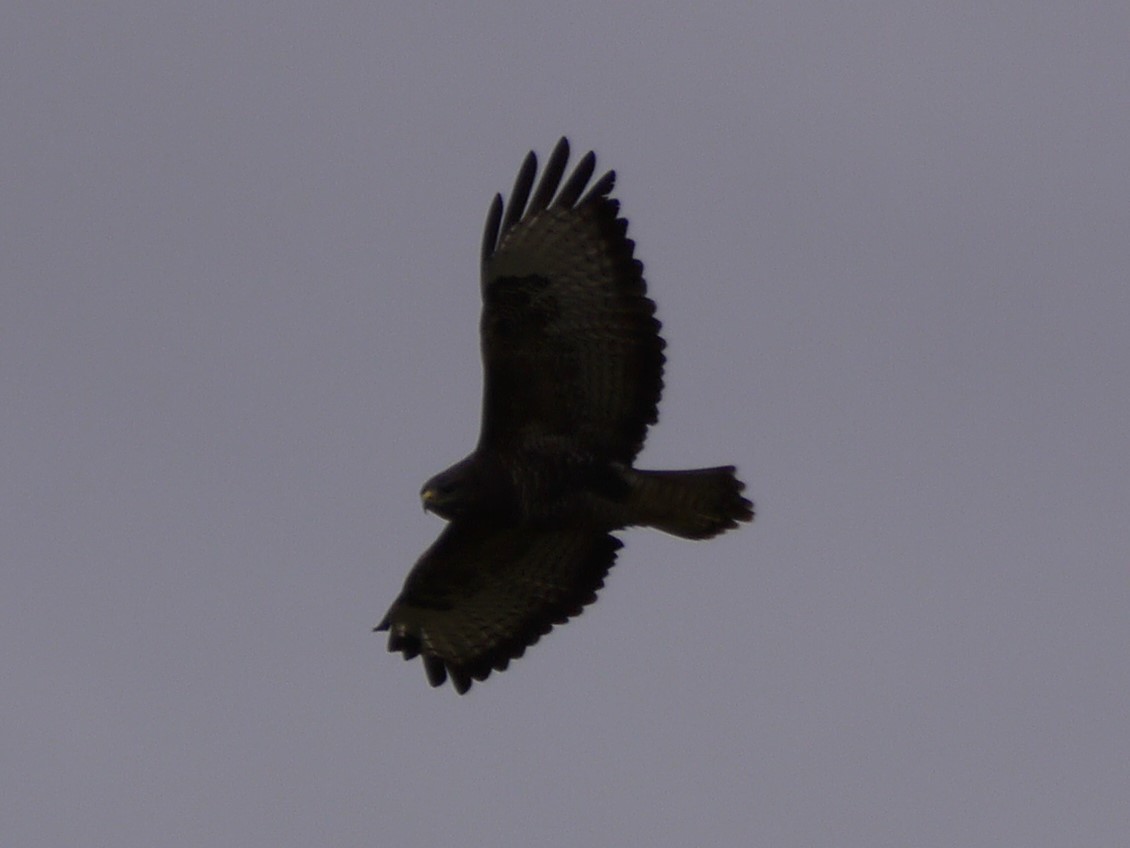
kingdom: Animalia
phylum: Chordata
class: Aves
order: Accipitriformes
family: Accipitridae
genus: Buteo
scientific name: Buteo buteo
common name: Common buzzard
